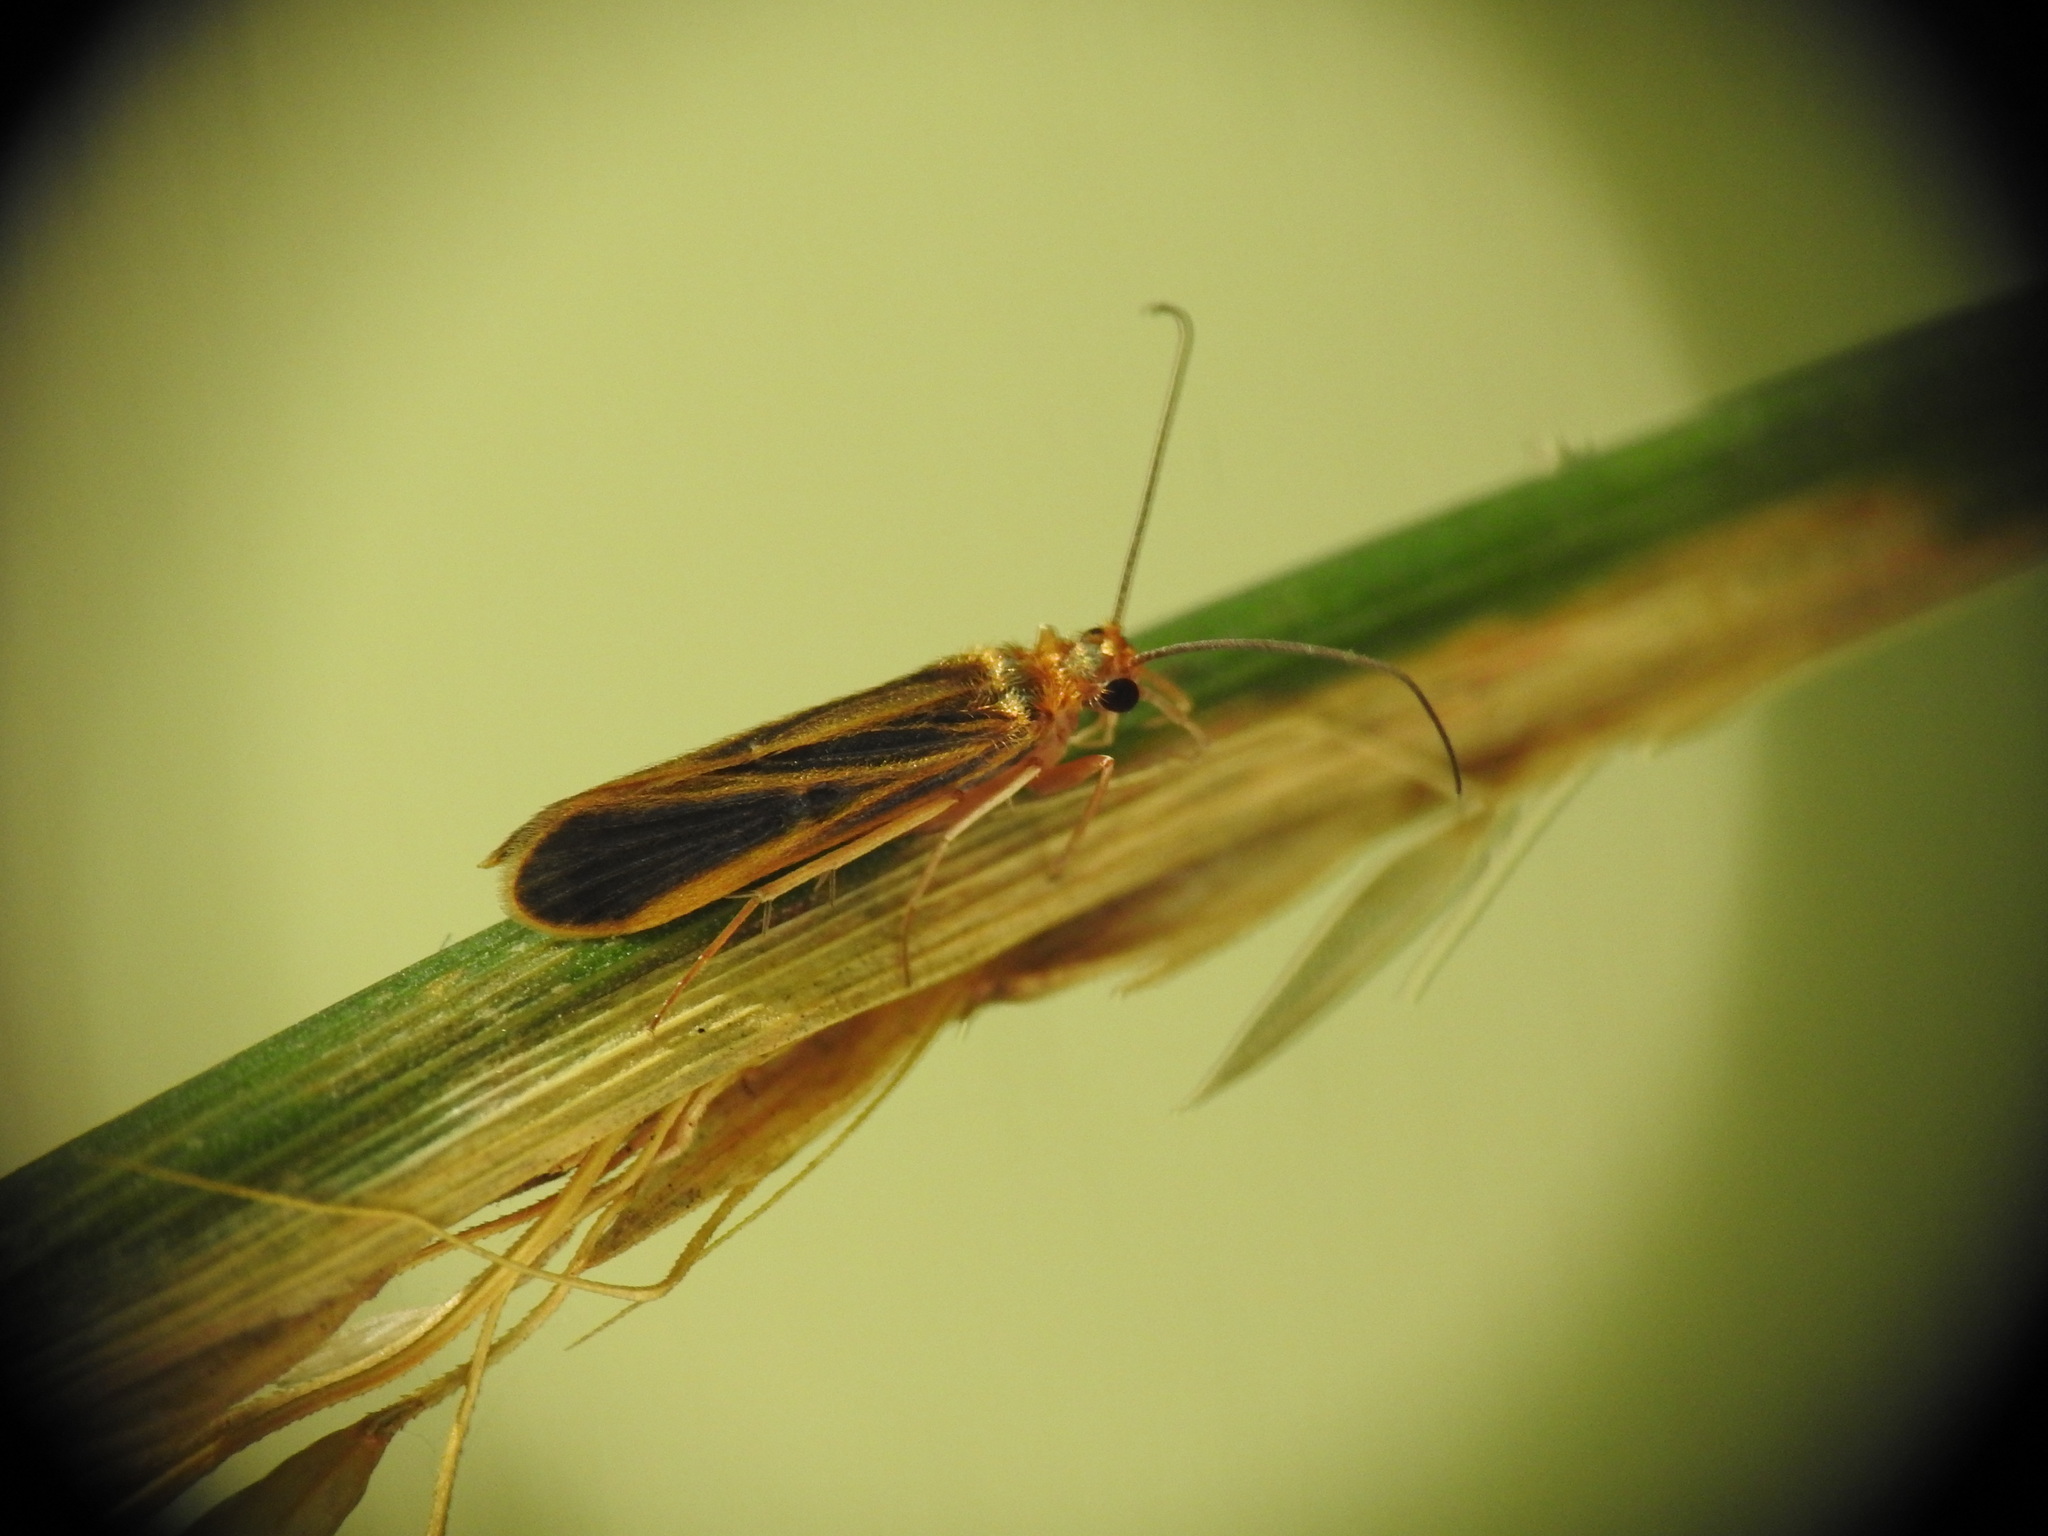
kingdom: Animalia
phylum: Arthropoda
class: Insecta
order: Trichoptera
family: Philopotamidae
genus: Chimarra
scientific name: Chimarra marginata
